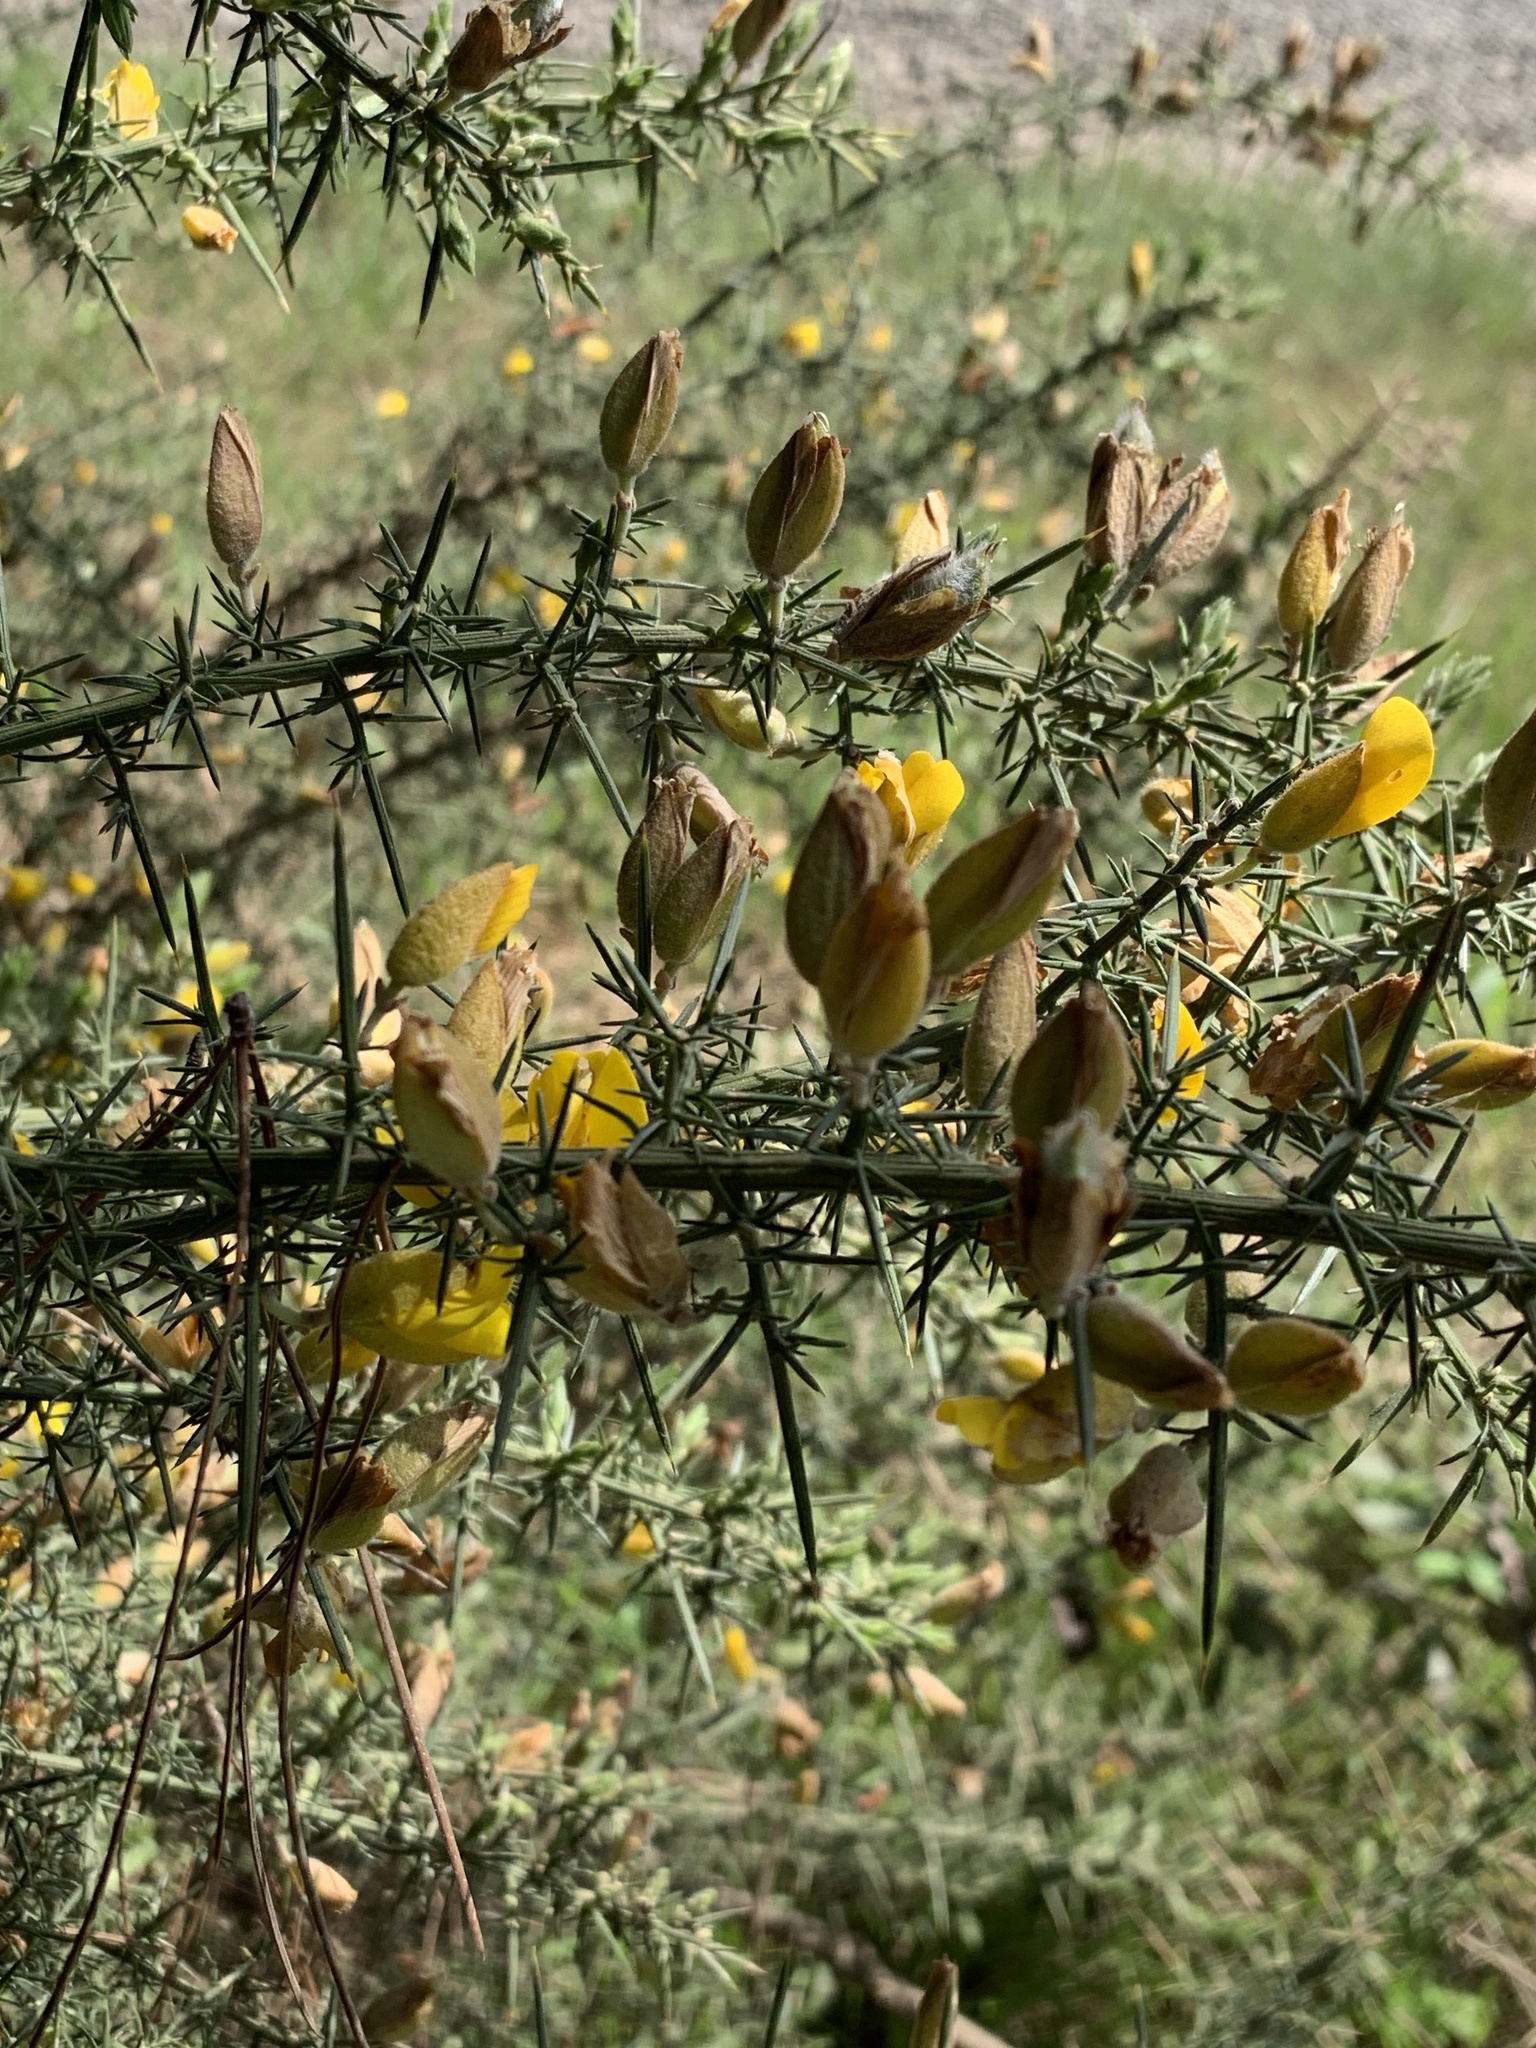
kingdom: Plantae
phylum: Tracheophyta
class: Magnoliopsida
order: Fabales
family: Fabaceae
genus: Ulex
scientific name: Ulex europaeus
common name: Common gorse
